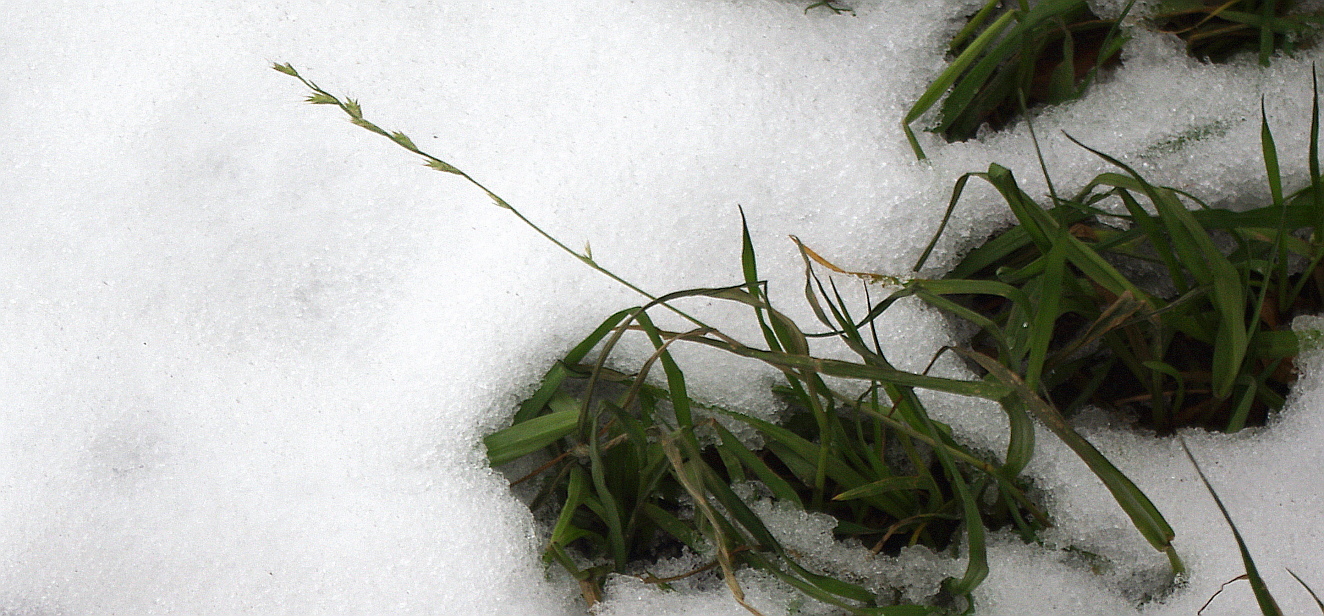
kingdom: Plantae
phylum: Tracheophyta
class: Liliopsida
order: Poales
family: Poaceae
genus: Lolium
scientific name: Lolium perenne
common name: Perennial ryegrass
